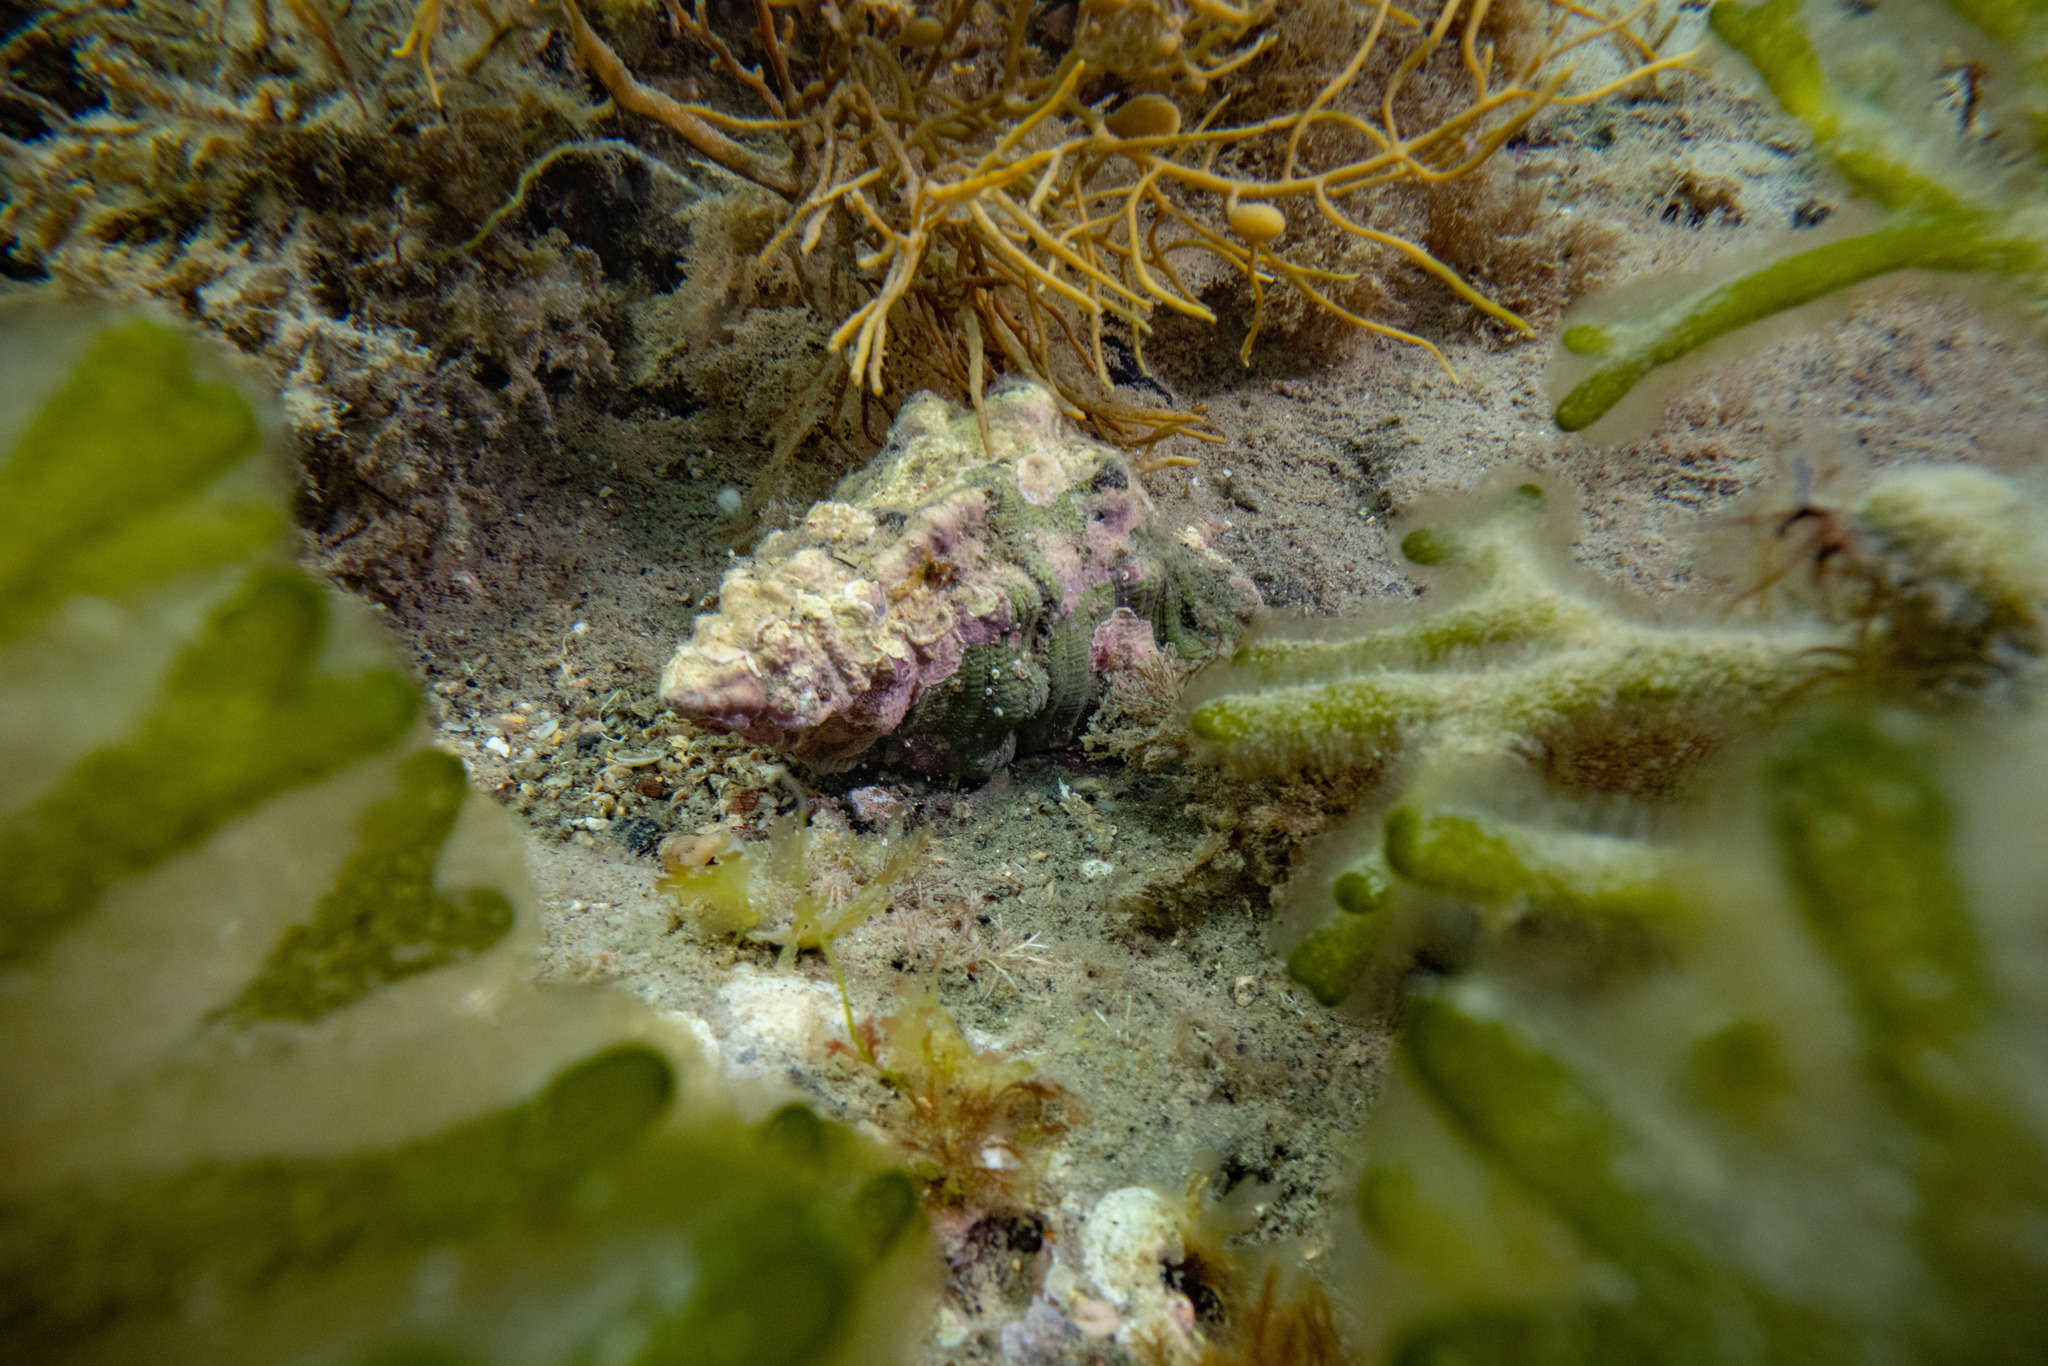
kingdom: Animalia
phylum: Mollusca
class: Gastropoda
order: Littorinimorpha
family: Cymatiidae
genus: Cabestana
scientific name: Cabestana spengleri
